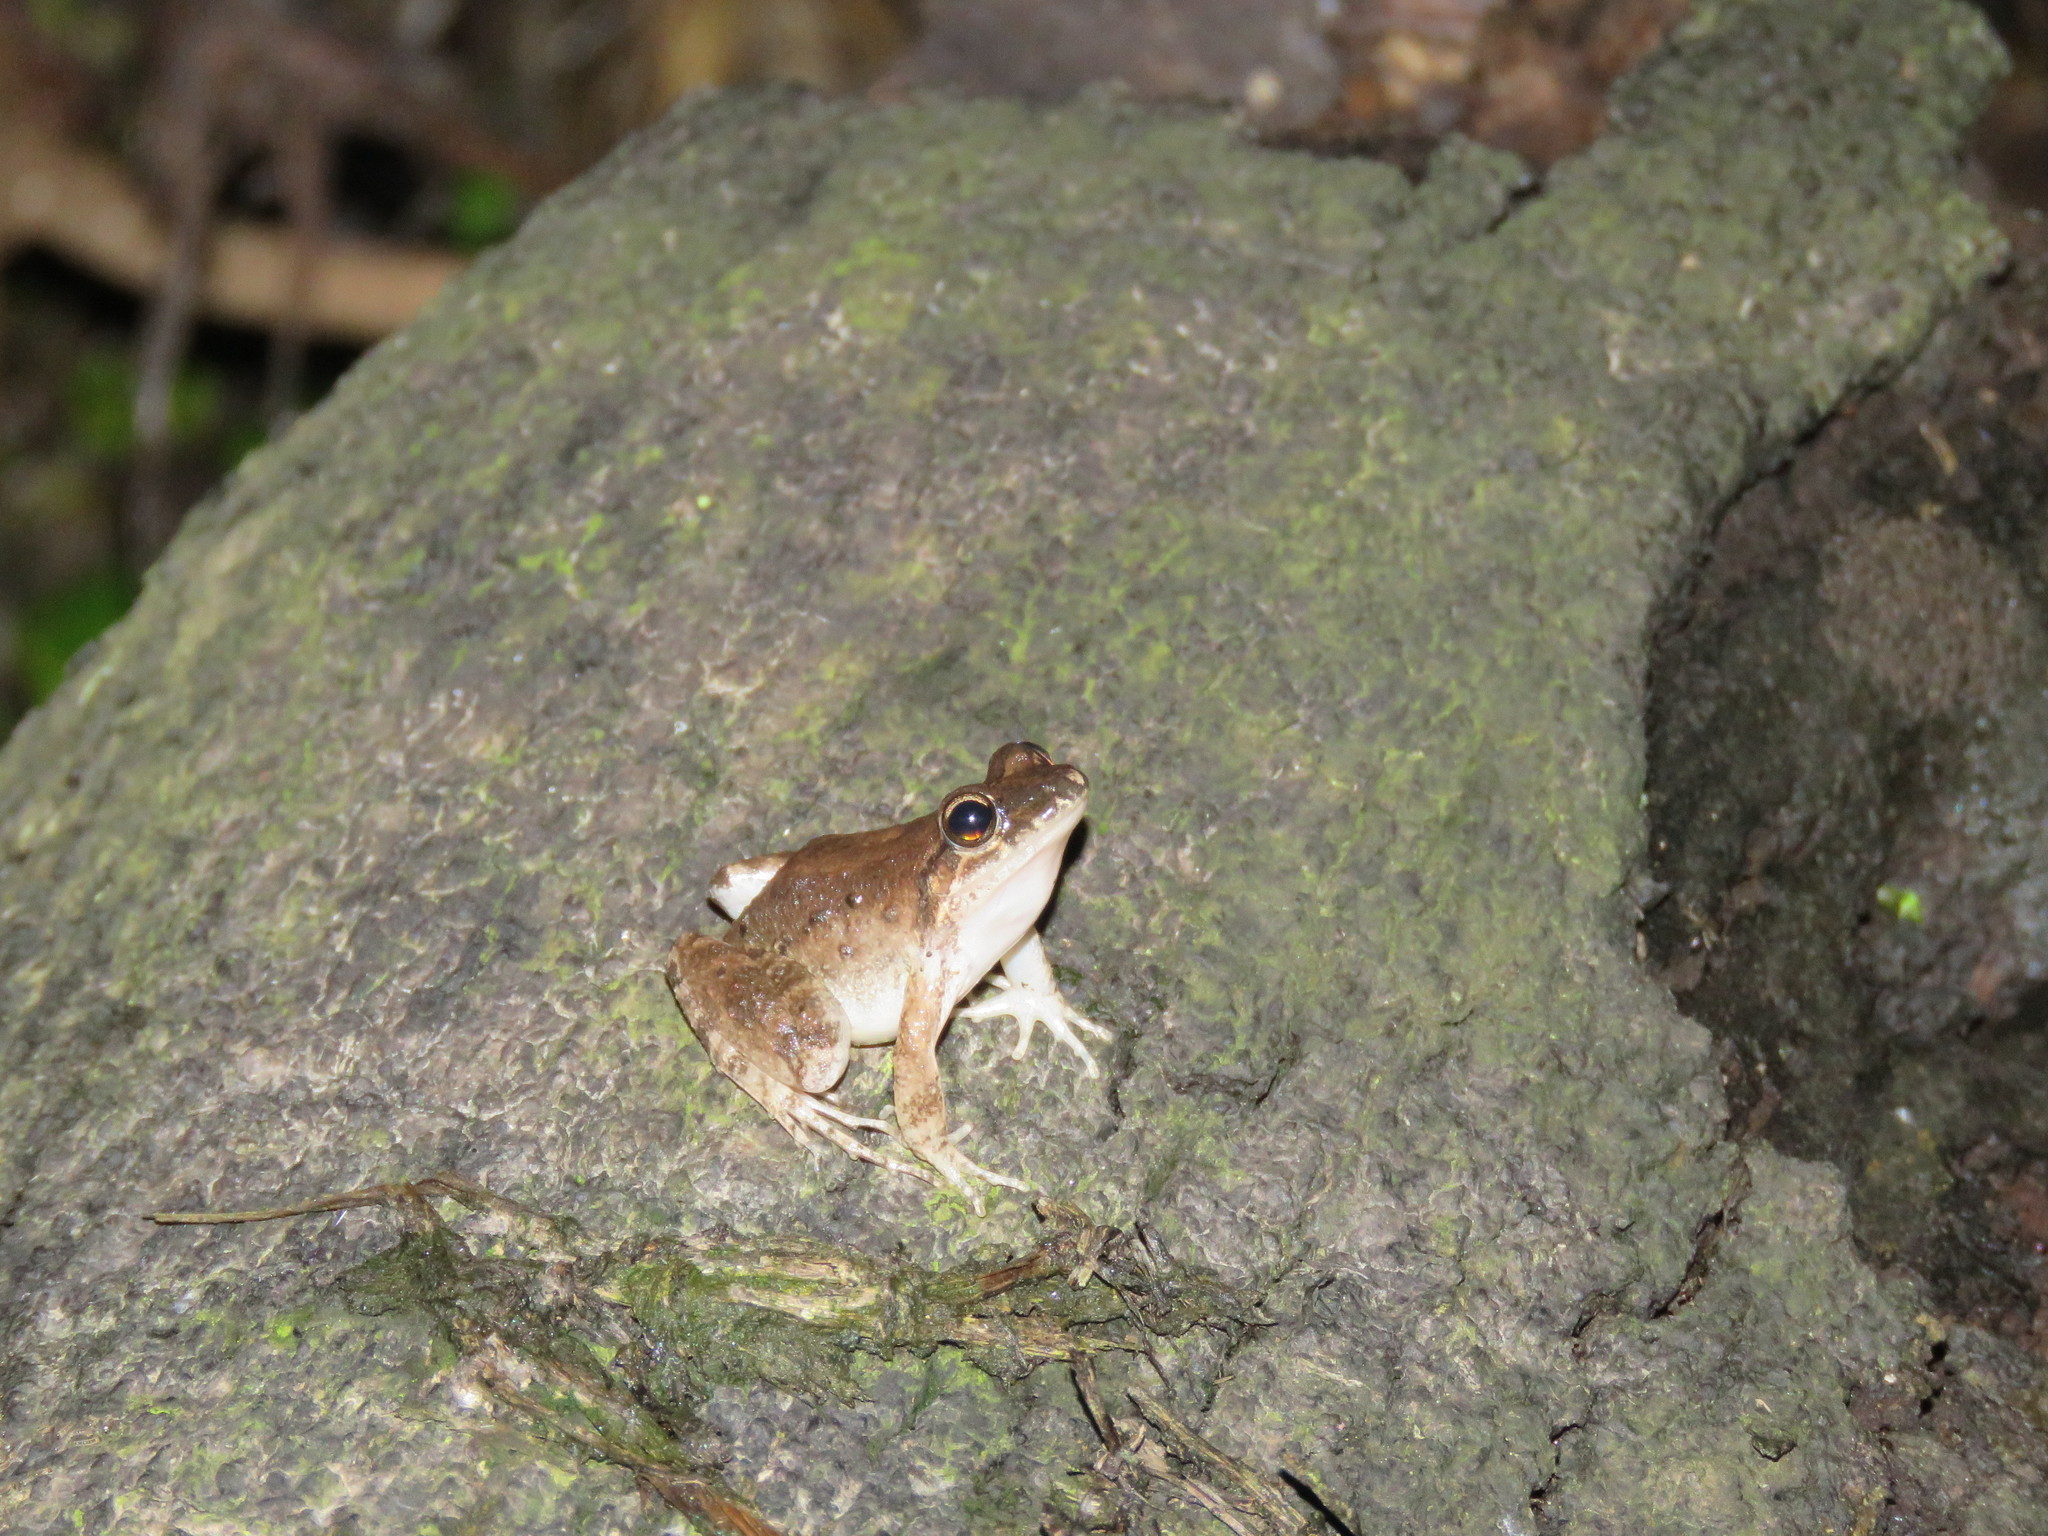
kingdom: Animalia
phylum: Chordata
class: Amphibia
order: Anura
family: Leptodactylidae
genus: Leptodactylus
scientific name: Leptodactylus petersii
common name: Peters' thin-toed frog
